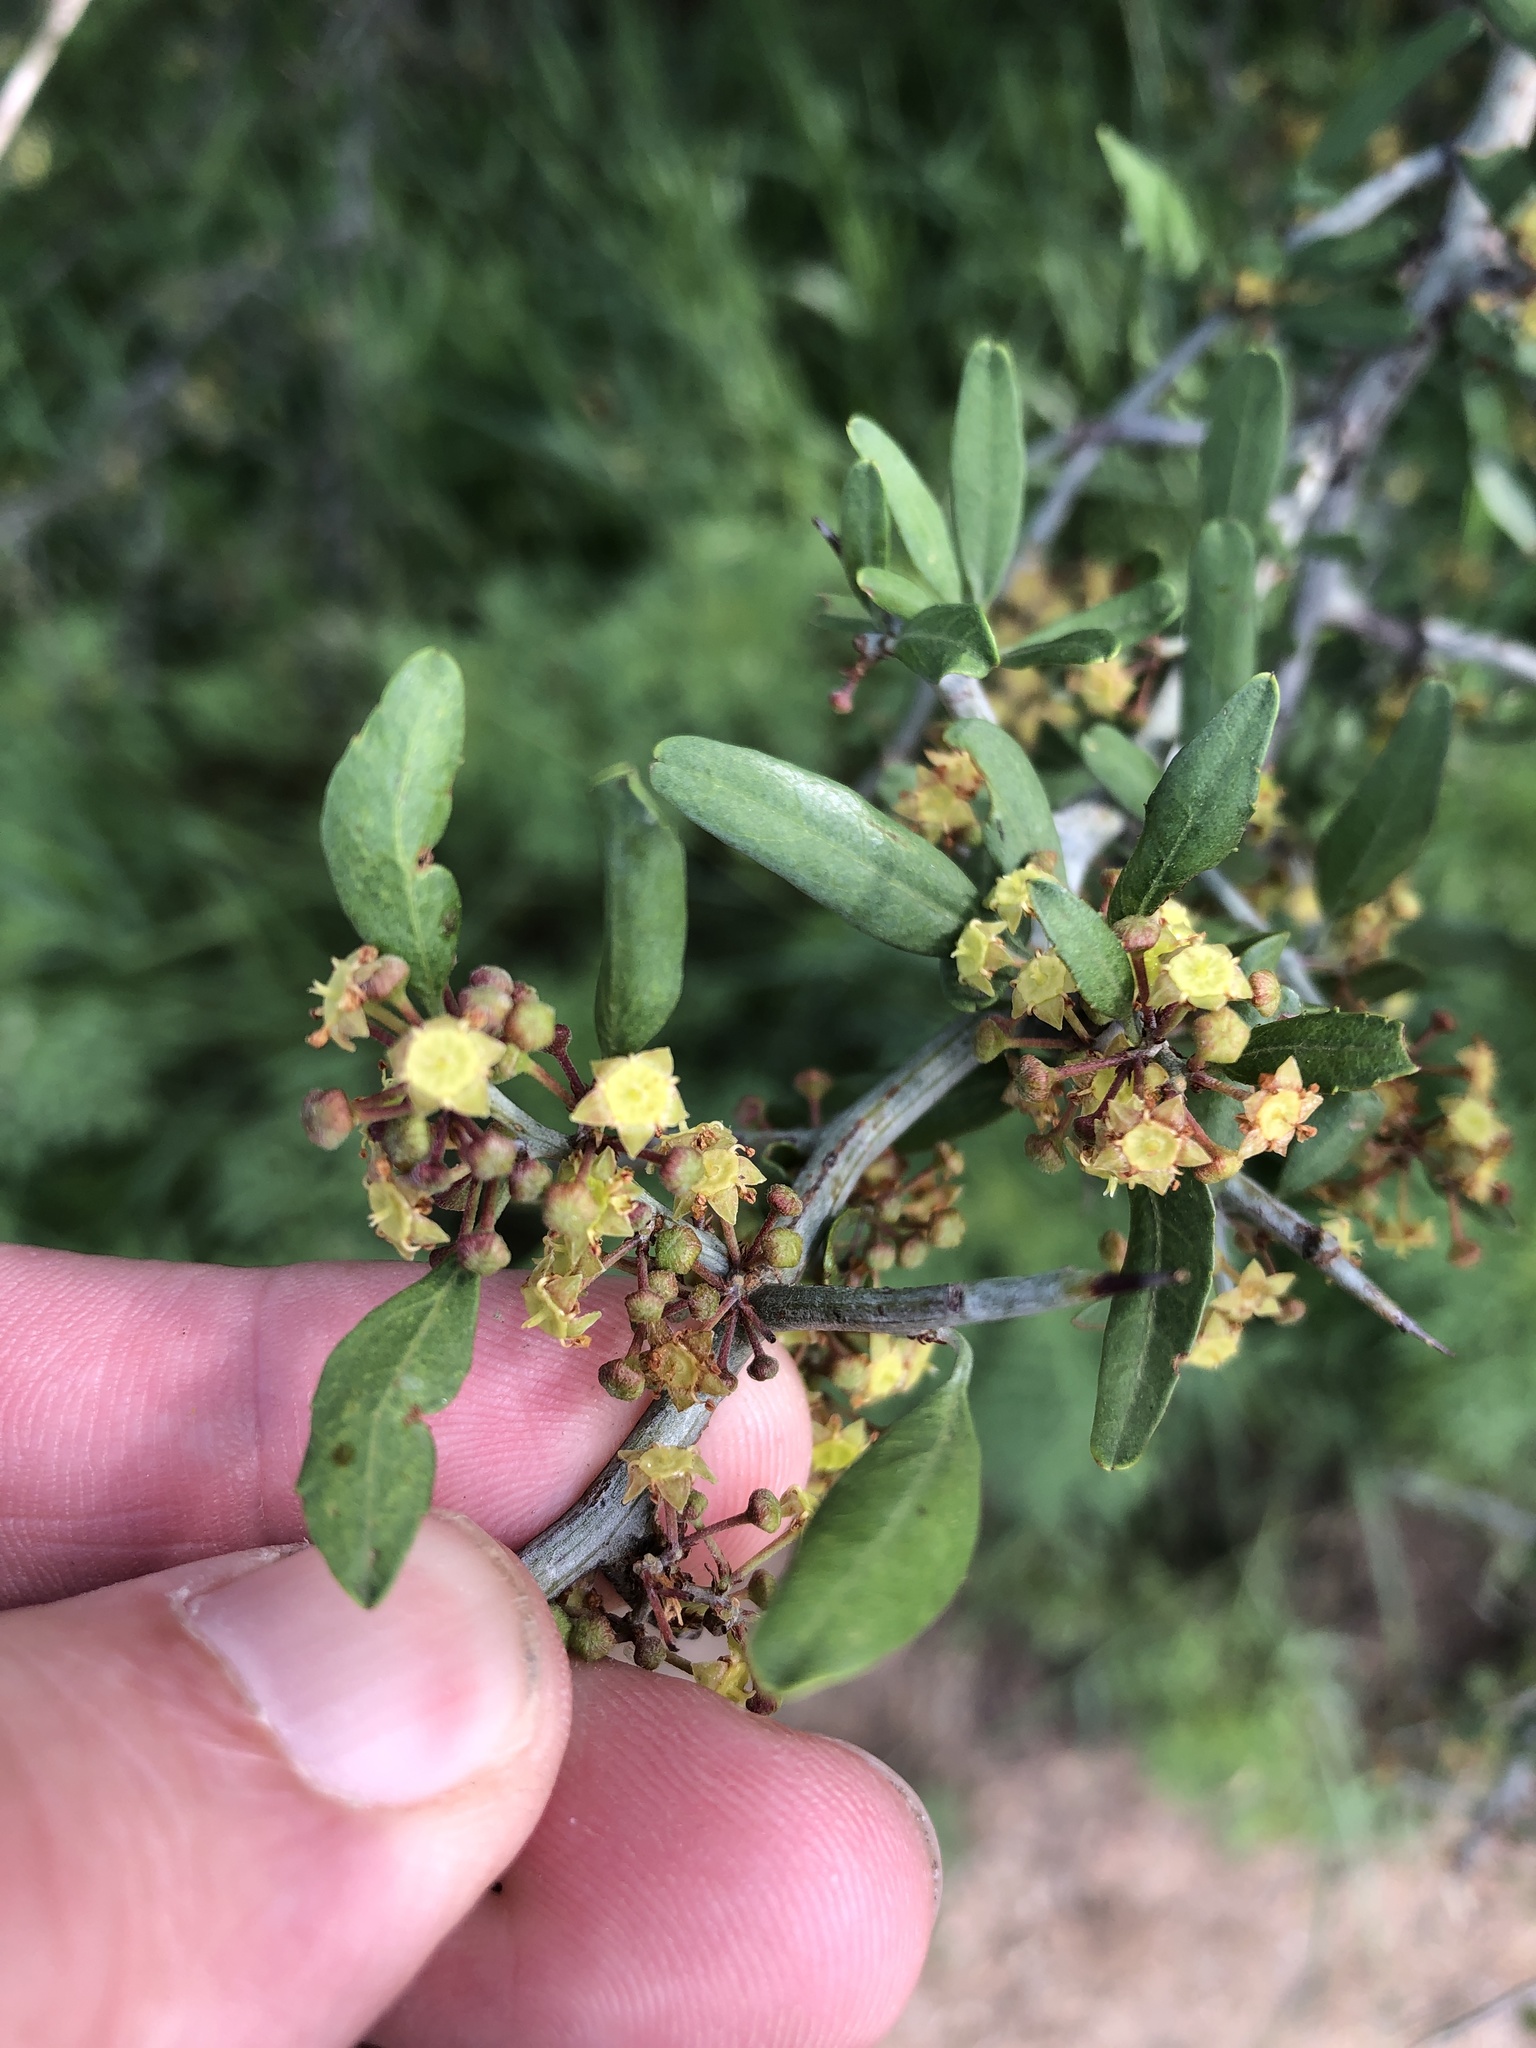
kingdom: Plantae
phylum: Tracheophyta
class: Magnoliopsida
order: Rosales
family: Rhamnaceae
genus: Sarcomphalus
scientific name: Sarcomphalus obtusifolius
